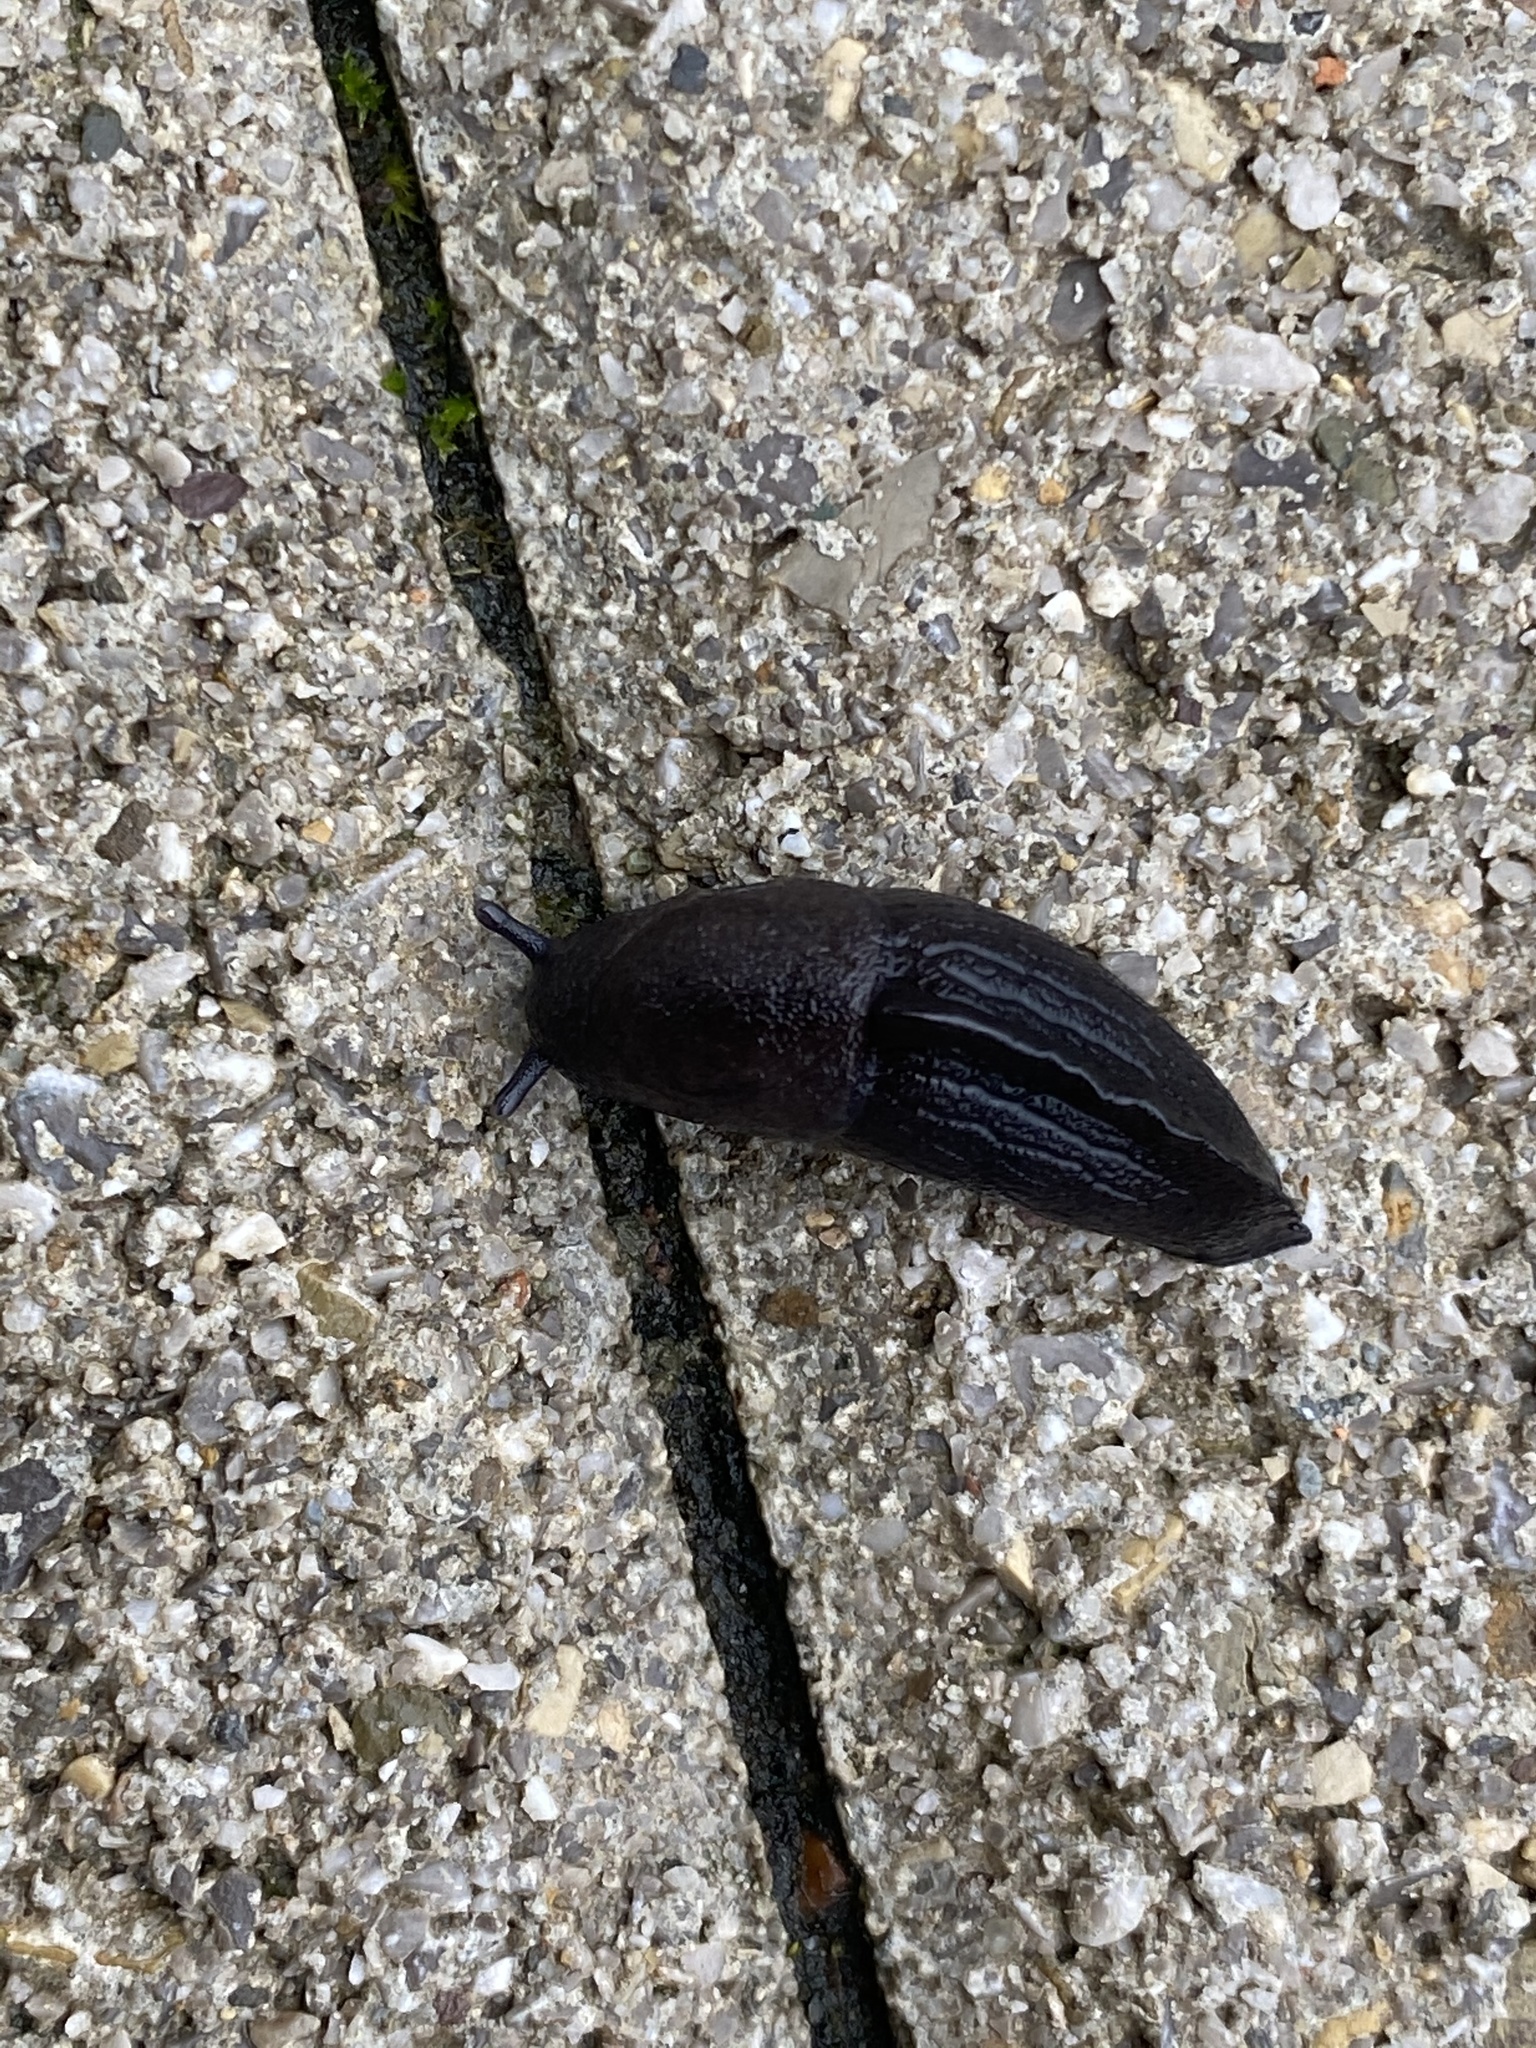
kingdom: Animalia
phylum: Mollusca
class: Gastropoda
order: Stylommatophora
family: Milacidae
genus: Milax
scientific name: Milax nigricans
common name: Black slug
